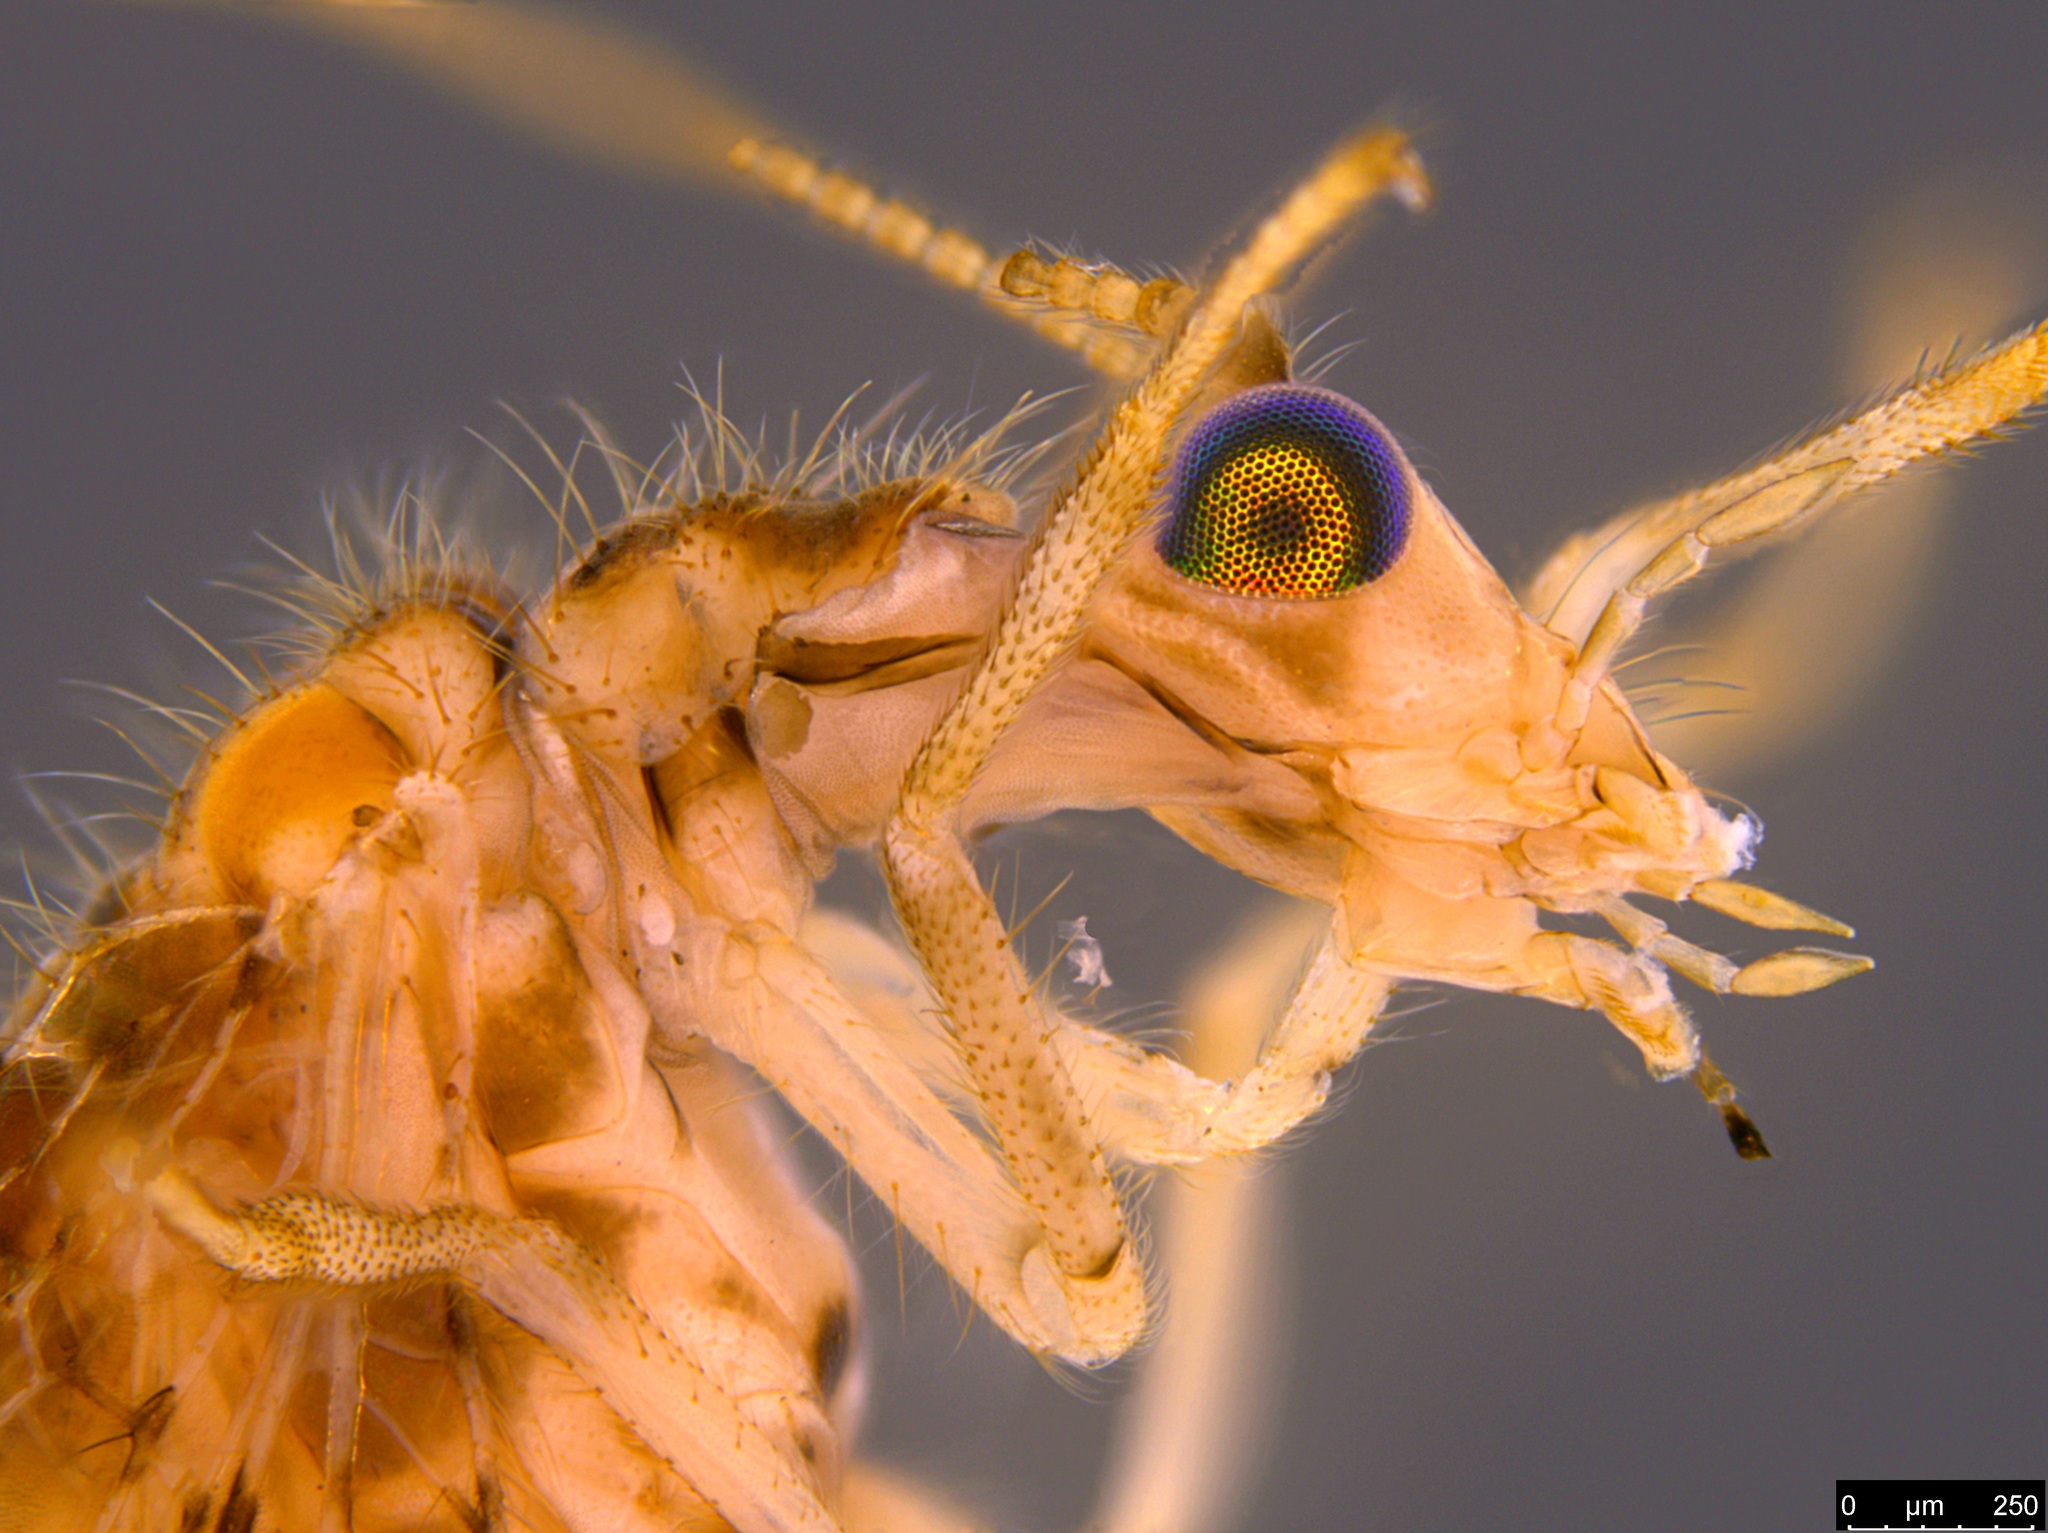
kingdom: Animalia
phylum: Arthropoda
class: Insecta
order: Neuroptera
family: Hemerobiidae
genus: Micromus
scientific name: Micromus tasmaniae
